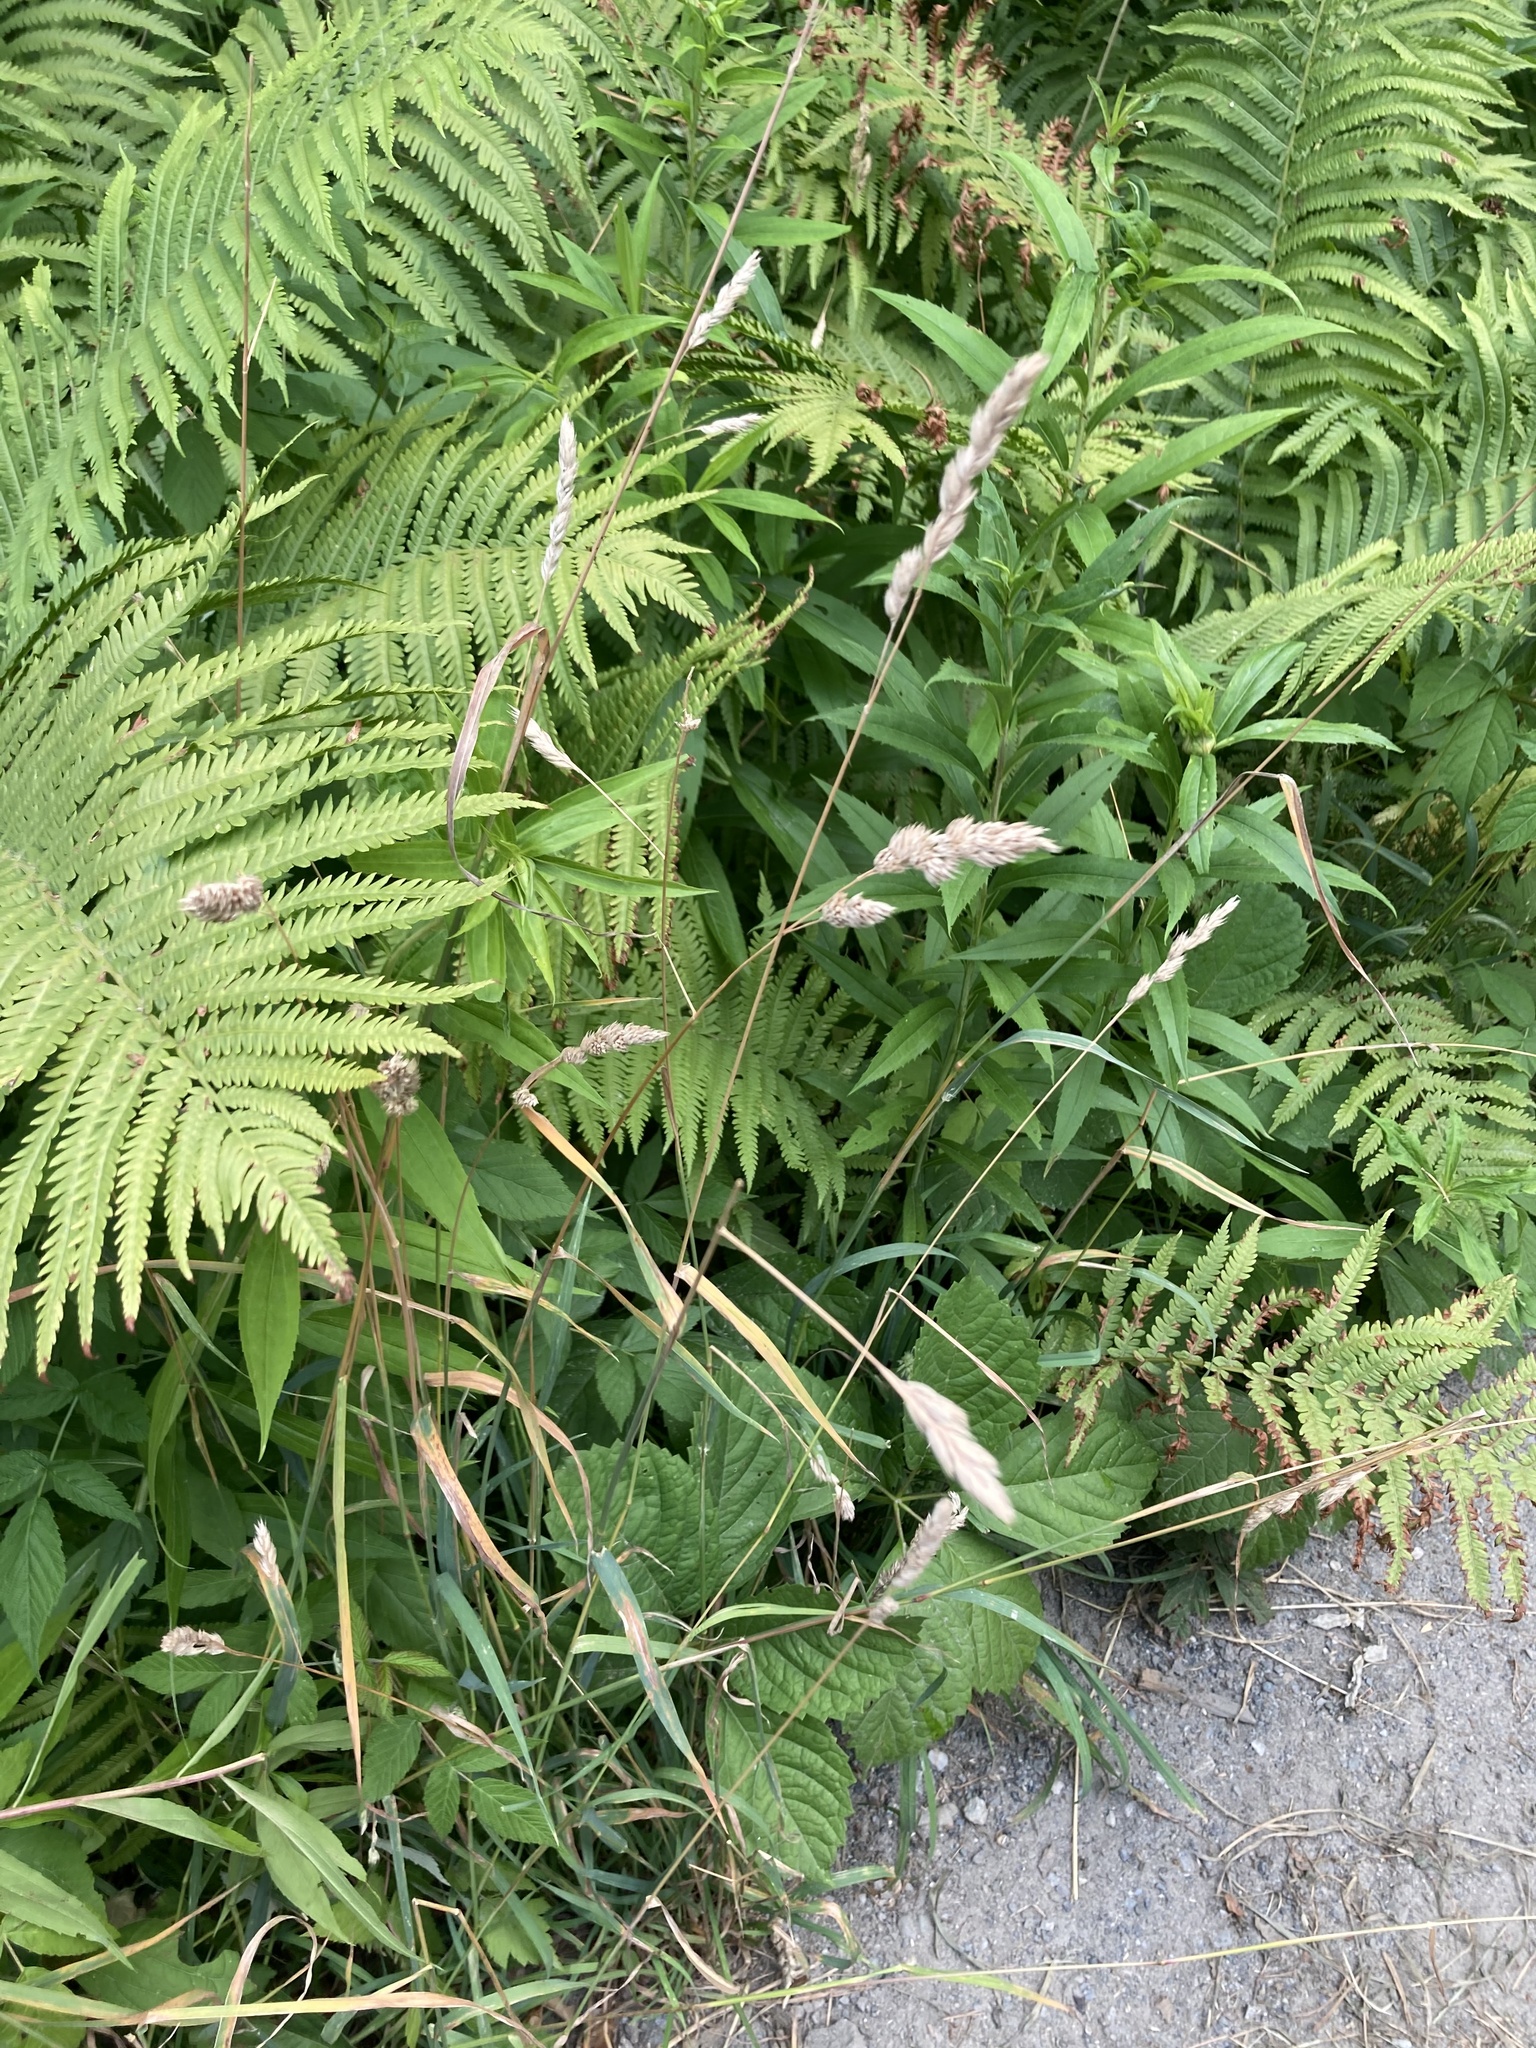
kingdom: Plantae
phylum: Tracheophyta
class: Liliopsida
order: Poales
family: Poaceae
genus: Dactylis
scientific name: Dactylis glomerata
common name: Orchardgrass
